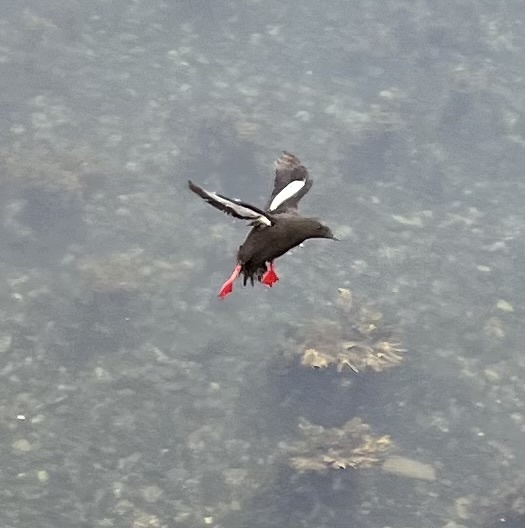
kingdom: Animalia
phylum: Chordata
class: Aves
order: Charadriiformes
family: Alcidae
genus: Cepphus
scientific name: Cepphus grylle
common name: Black guillemot
